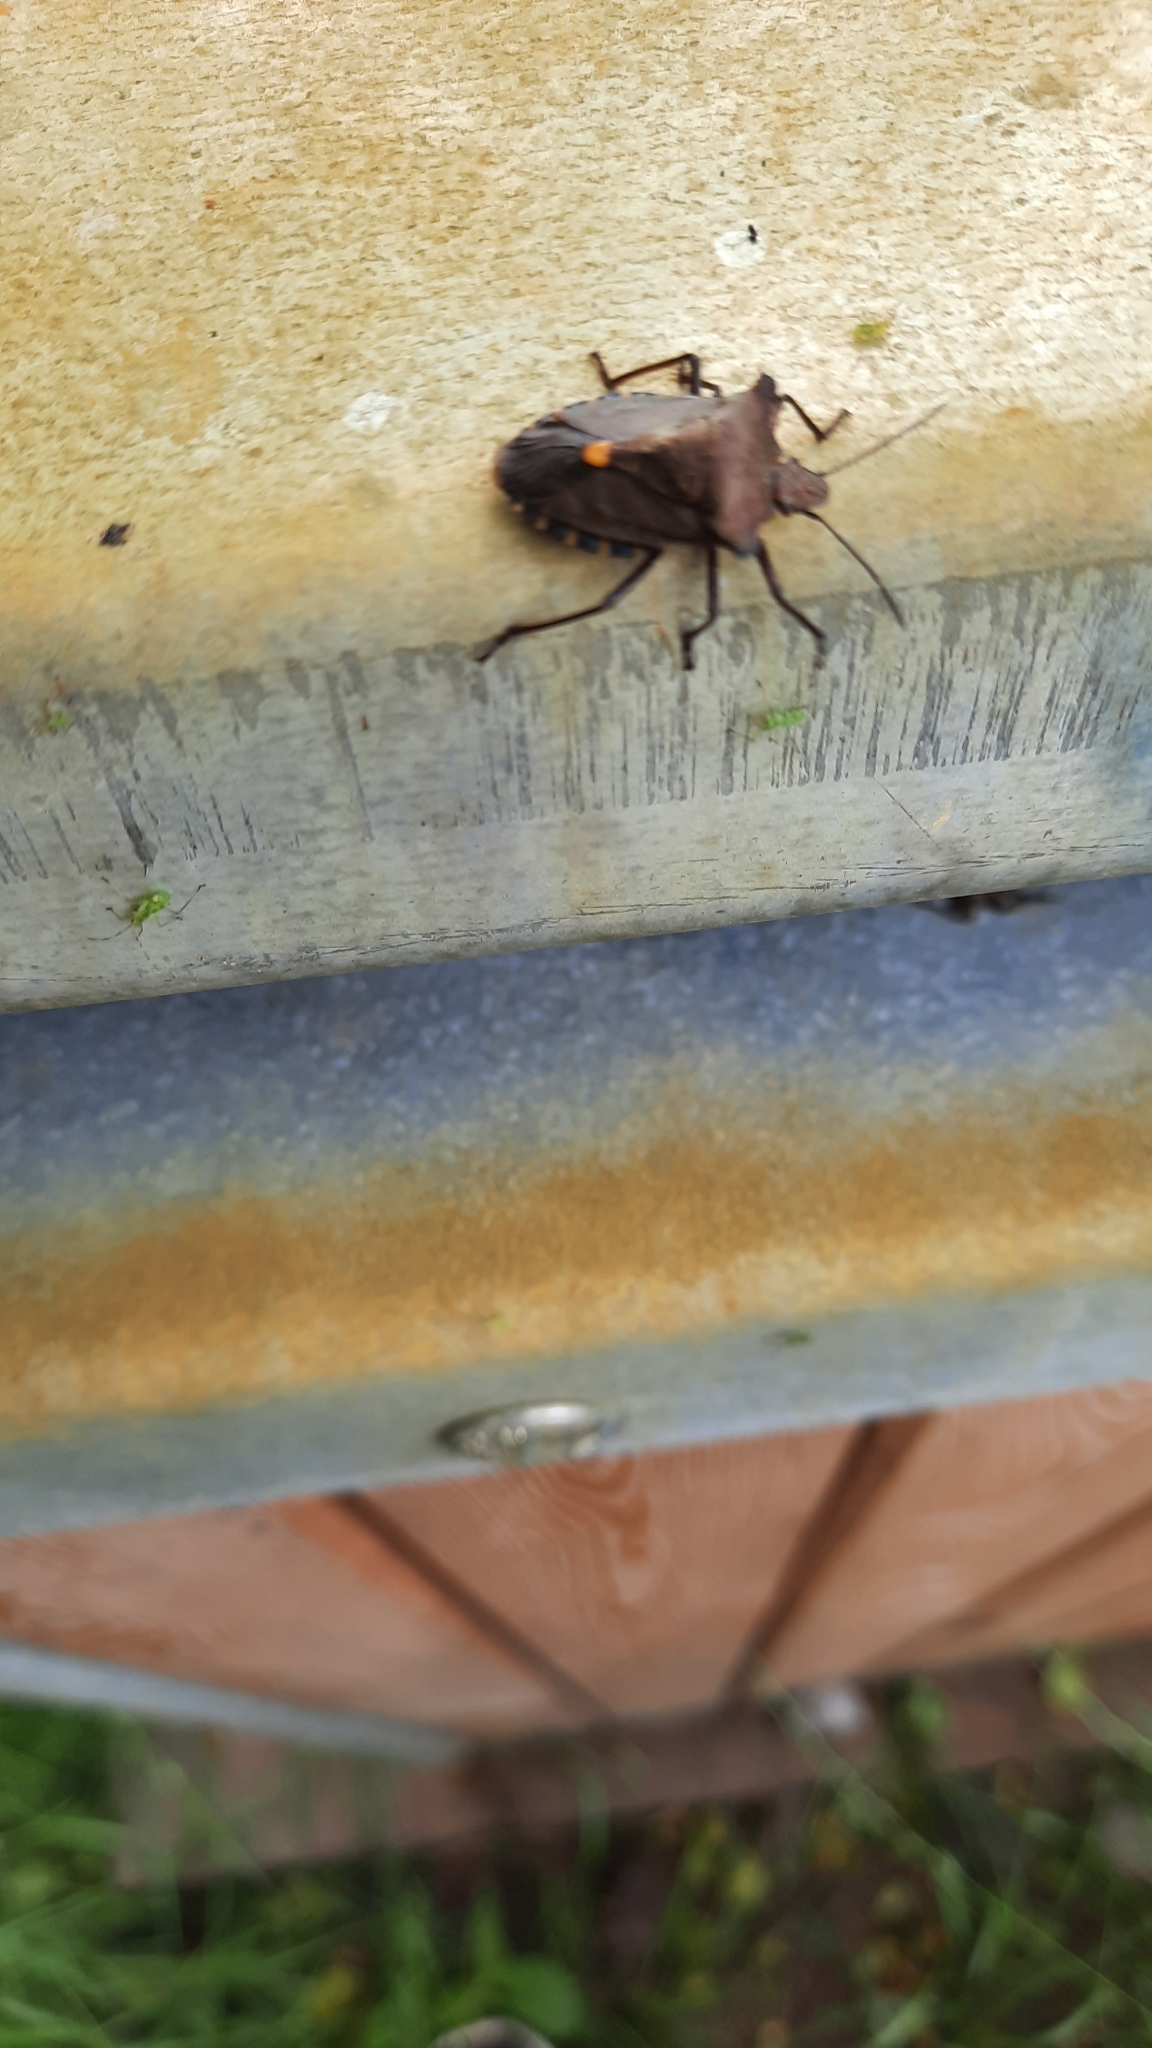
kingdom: Animalia
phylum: Arthropoda
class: Insecta
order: Hemiptera
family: Pentatomidae
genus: Pentatoma
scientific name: Pentatoma rufipes
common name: Forest bug
